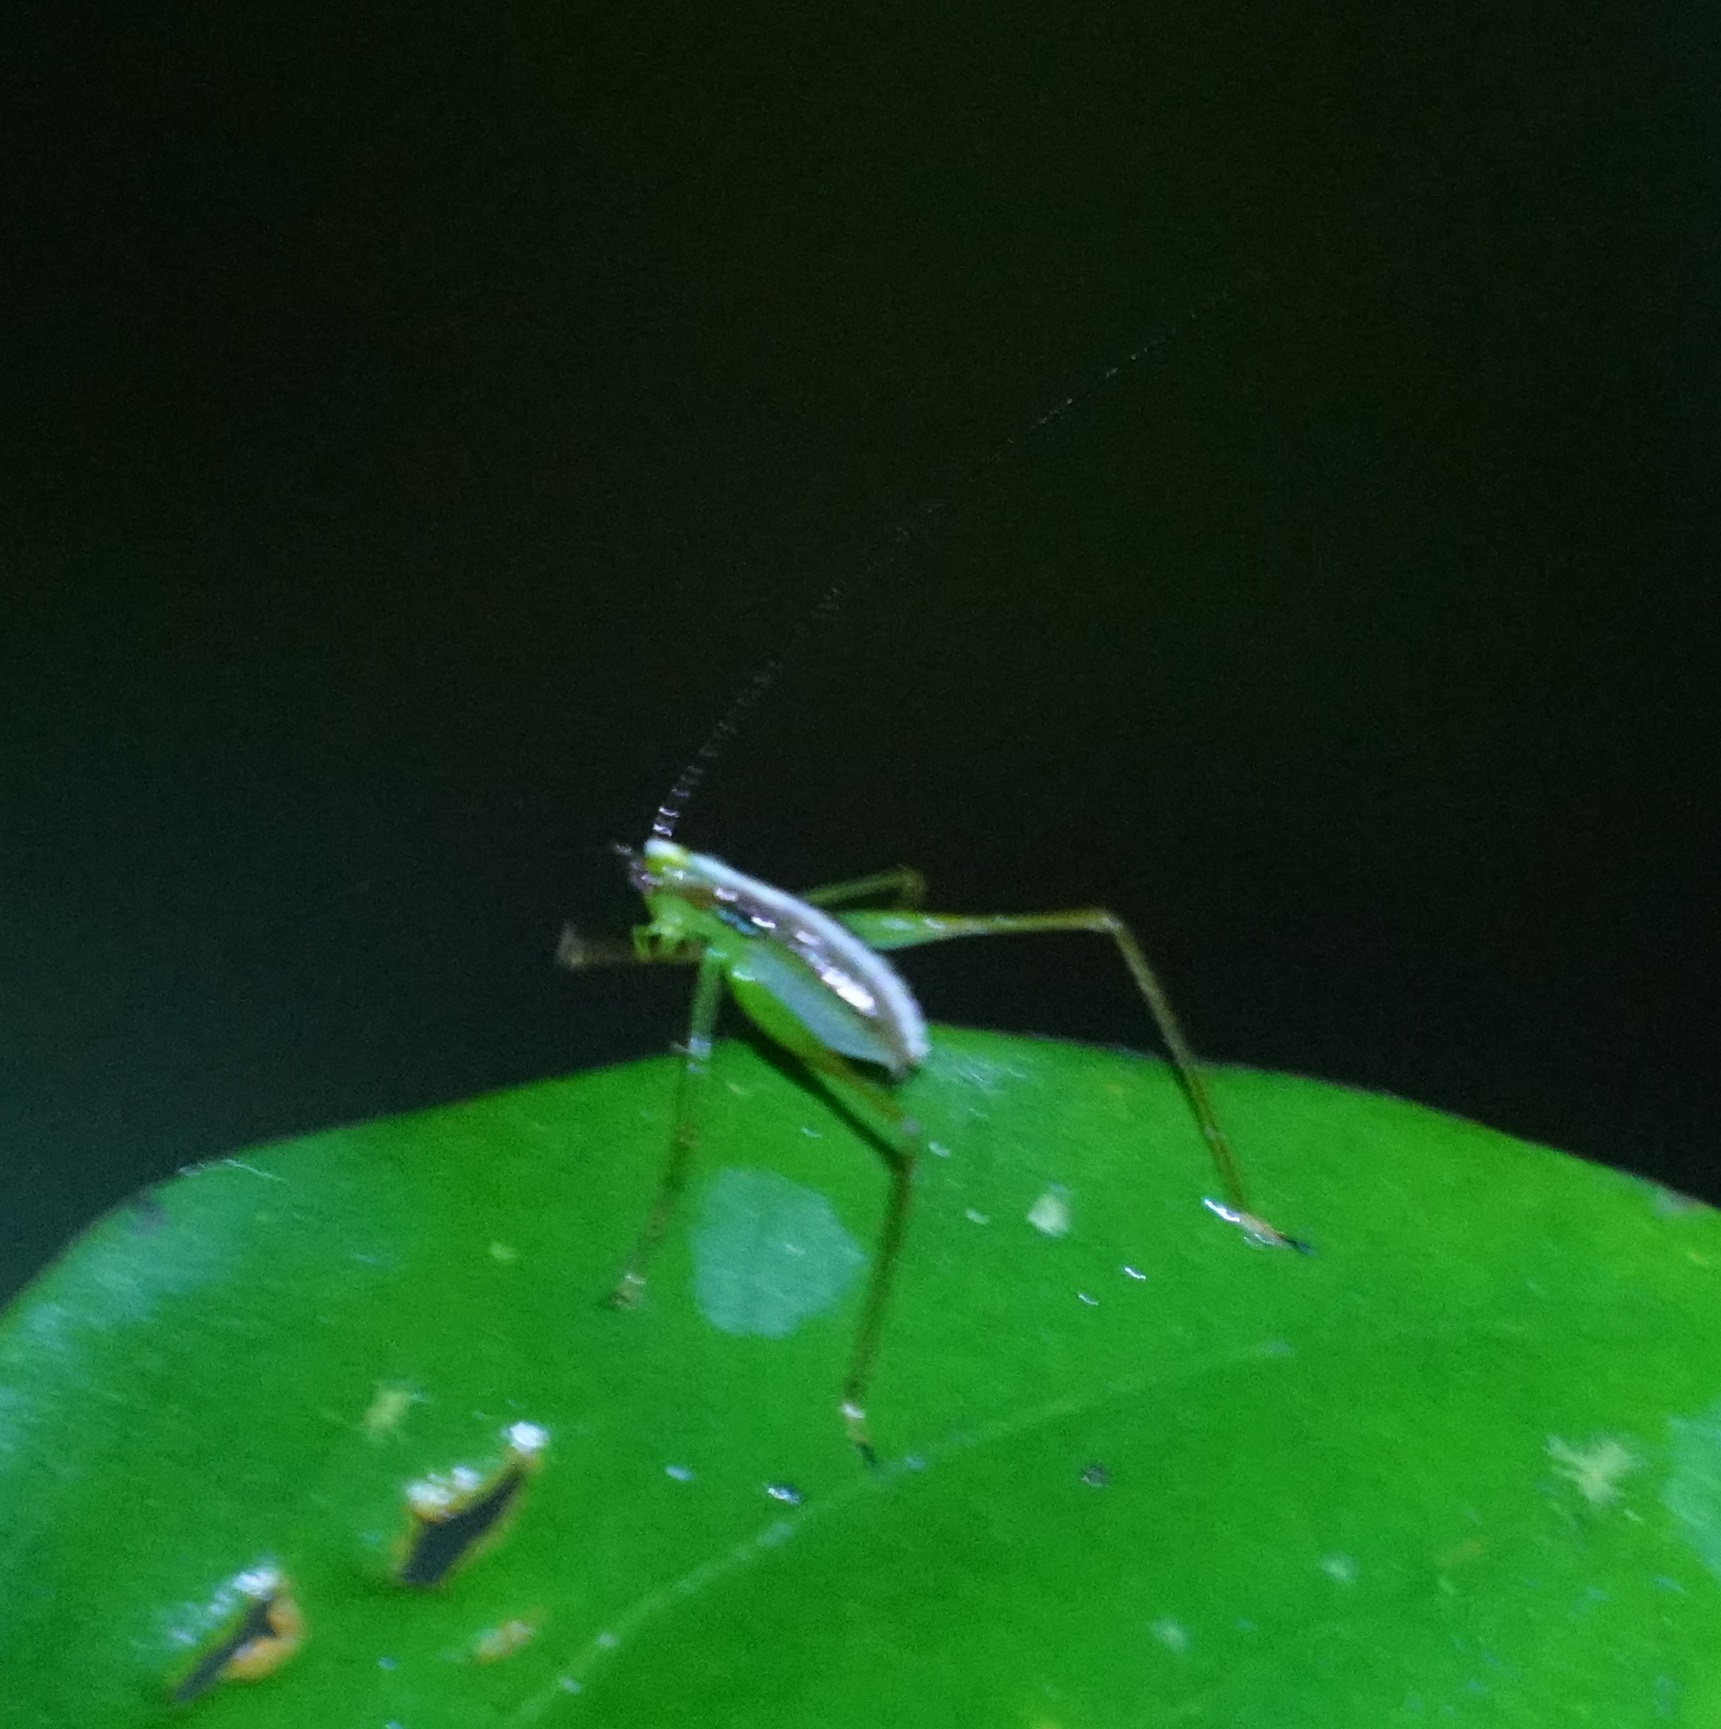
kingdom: Animalia
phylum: Arthropoda
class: Insecta
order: Orthoptera
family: Tettigoniidae
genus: Kurandoptera
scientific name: Kurandoptera purpura
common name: Purple-winged katydid
